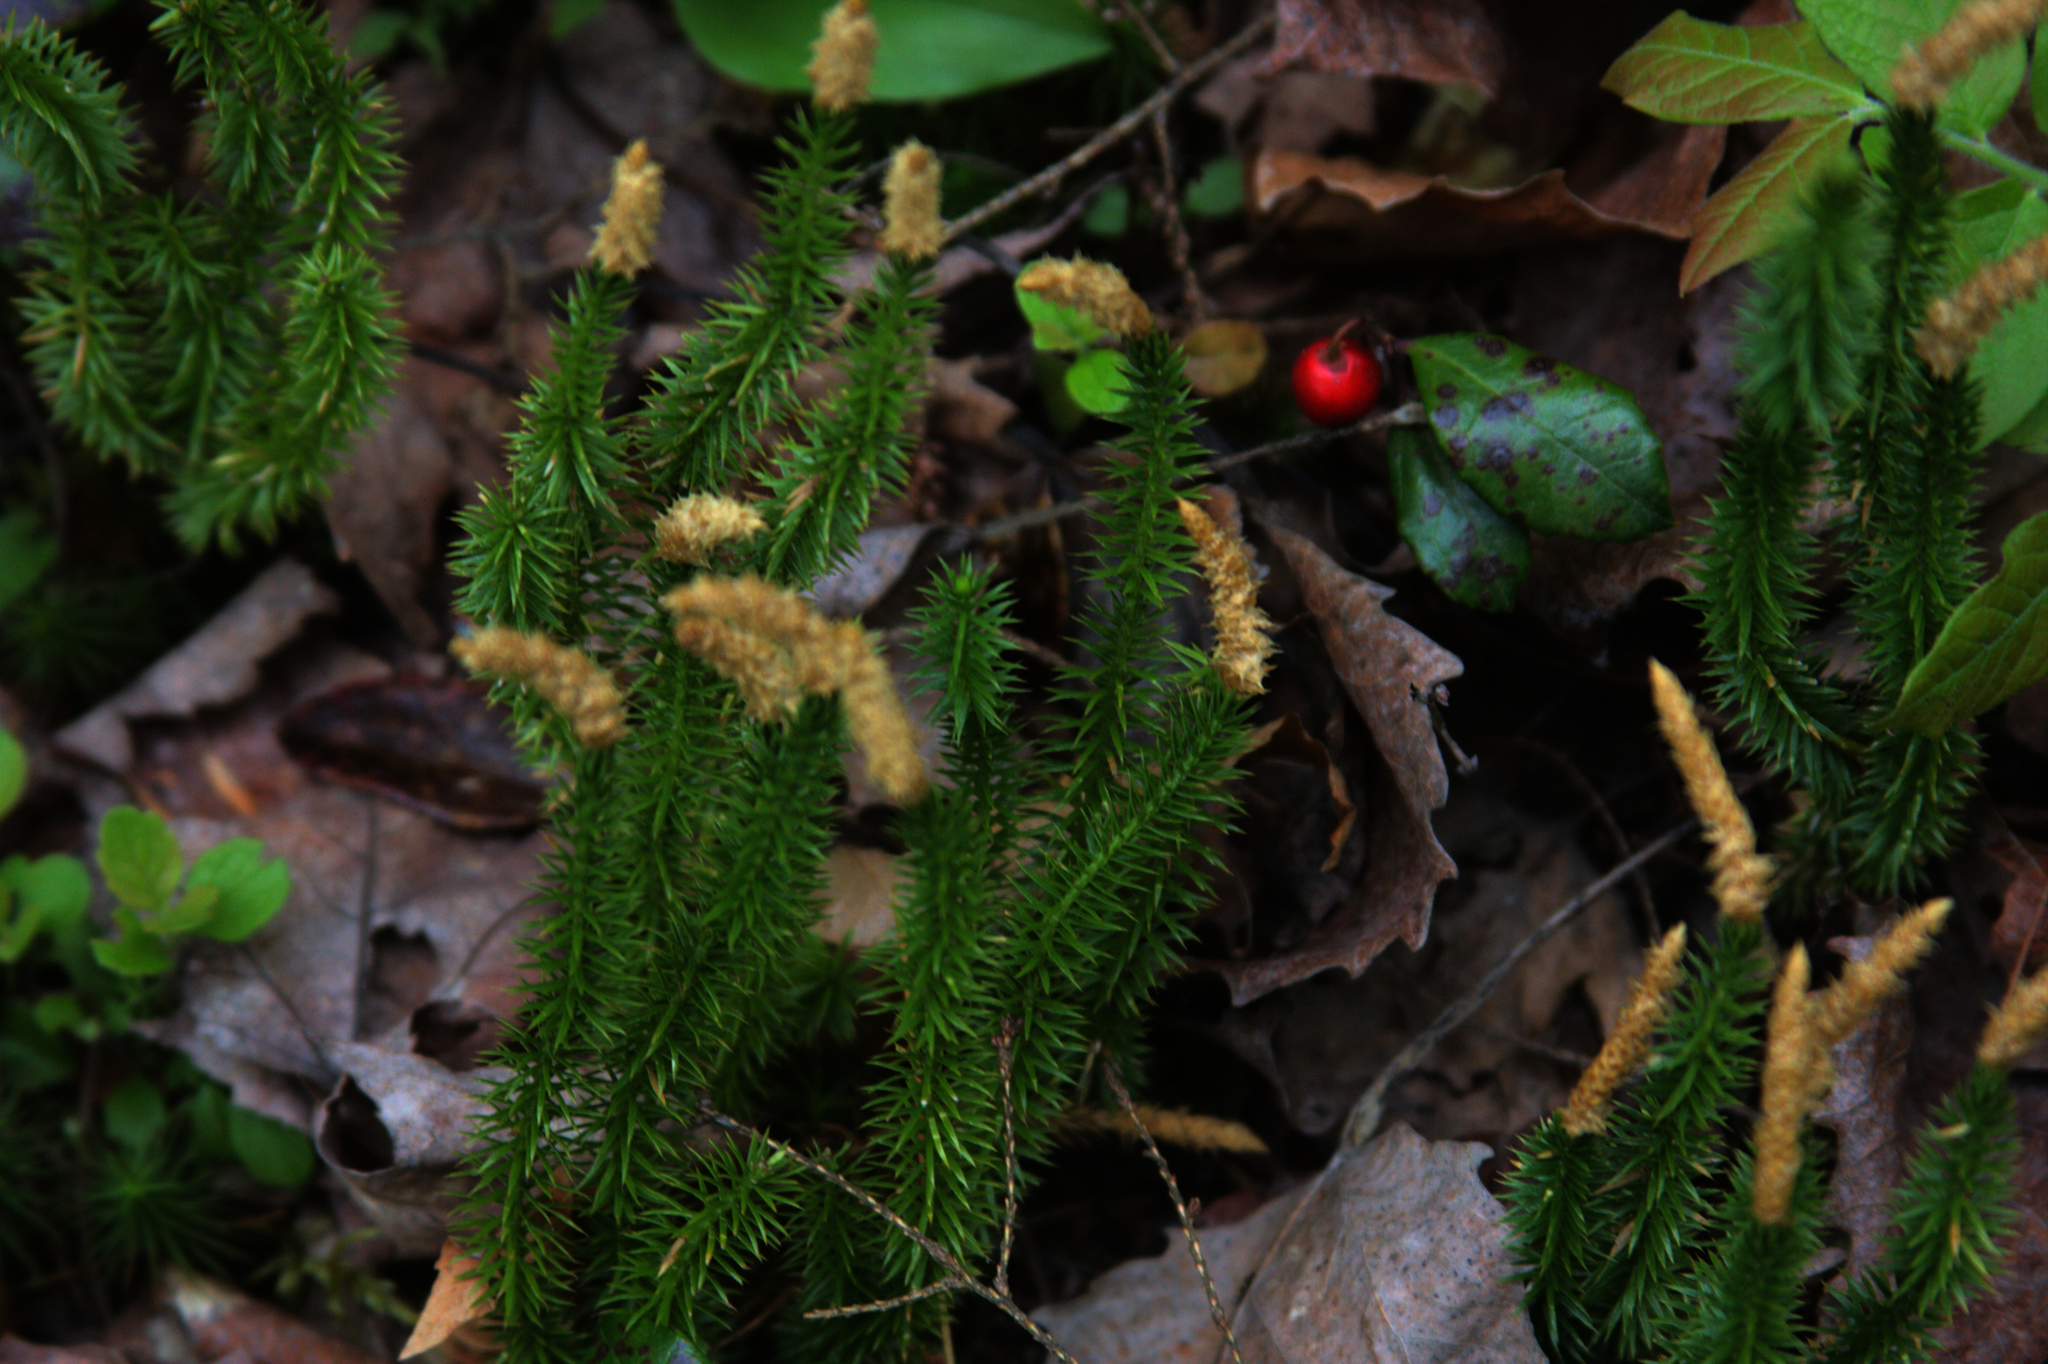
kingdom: Plantae
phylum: Tracheophyta
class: Lycopodiopsida
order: Lycopodiales
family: Lycopodiaceae
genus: Spinulum
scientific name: Spinulum annotinum
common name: Interrupted club-moss
